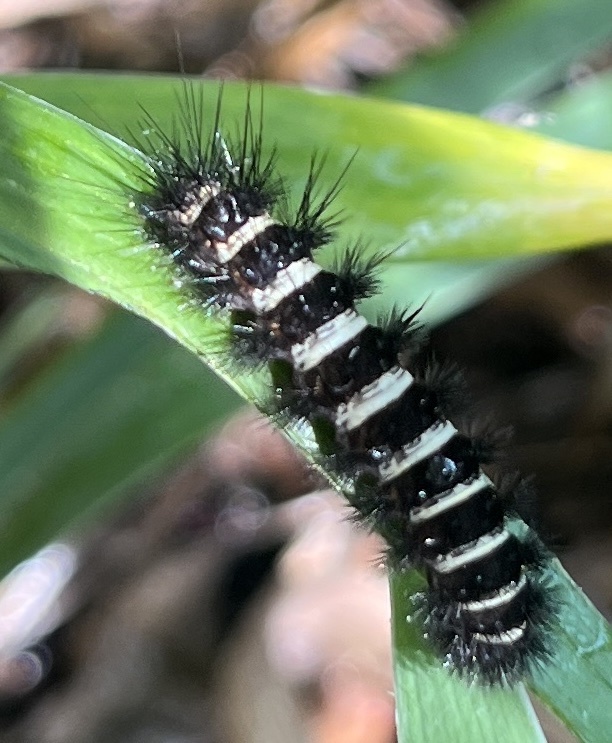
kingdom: Animalia
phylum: Arthropoda
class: Insecta
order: Lepidoptera
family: Erebidae
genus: Spilosoma
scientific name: Spilosoma congrua
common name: Agreeable tiger moth
